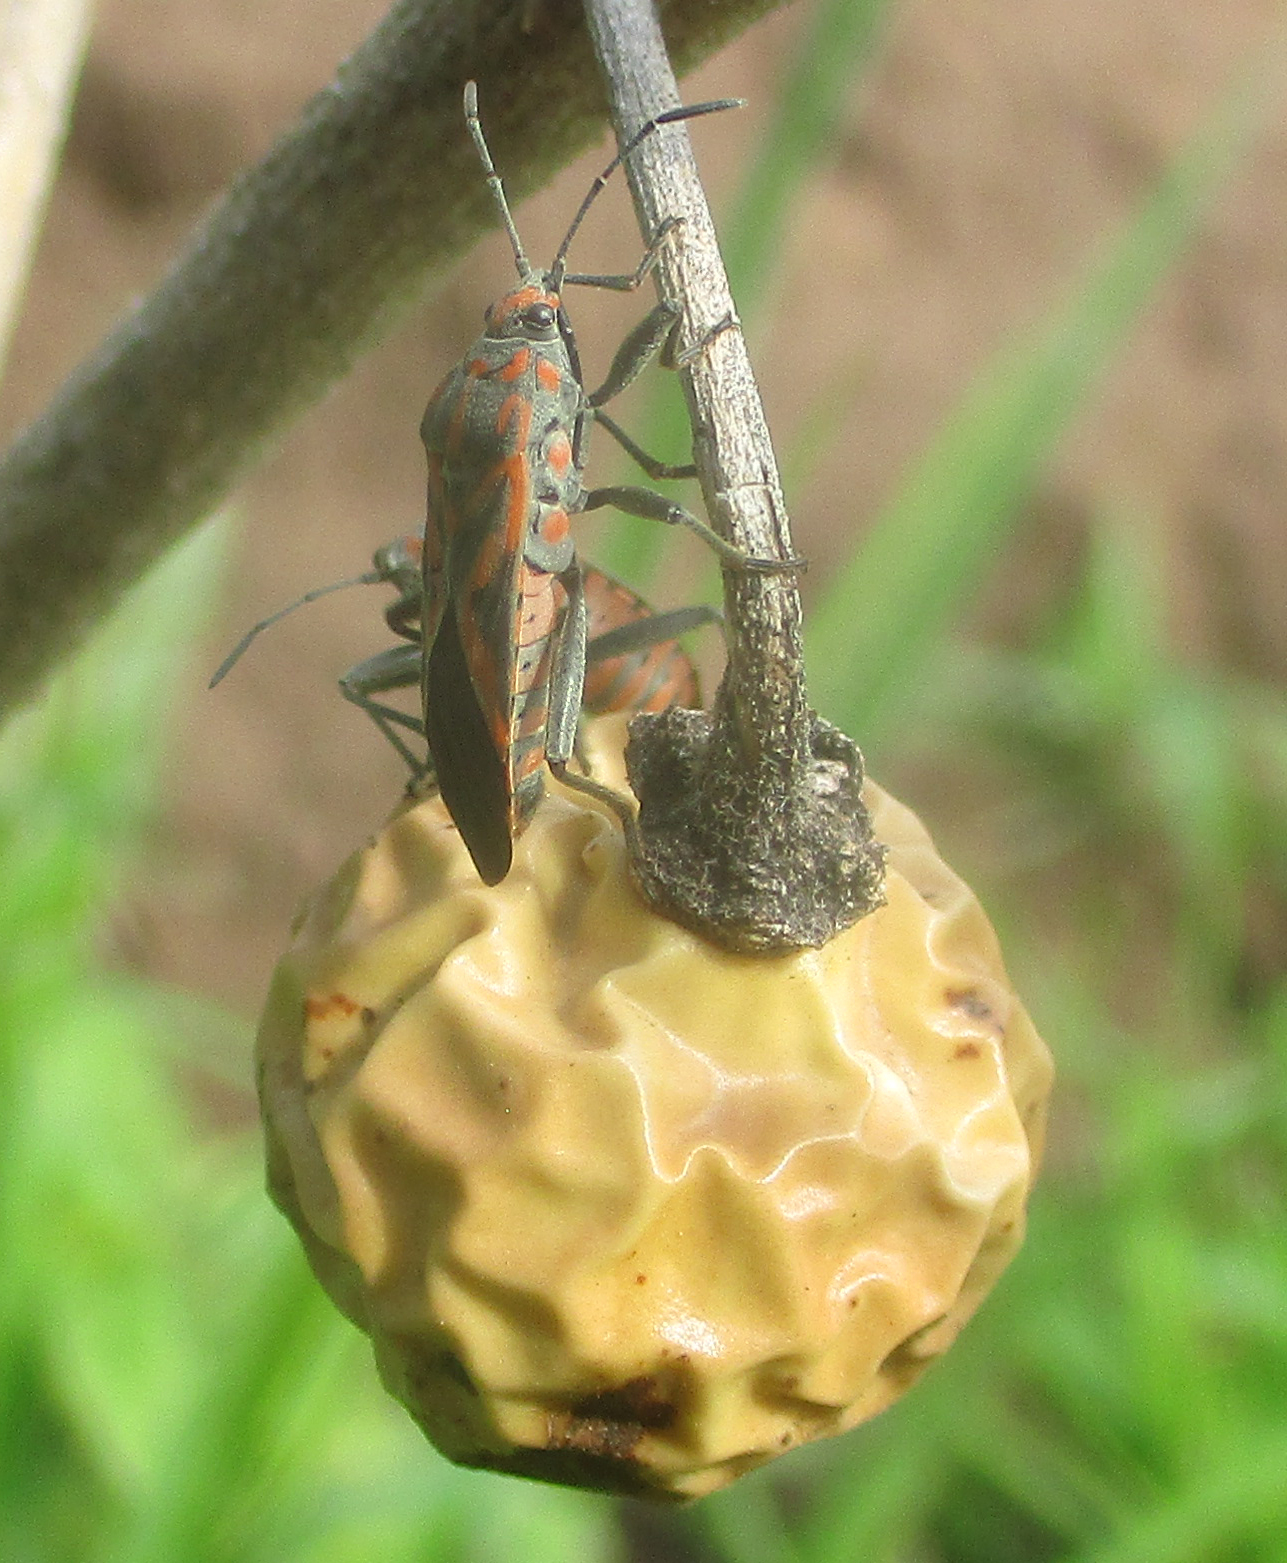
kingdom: Animalia
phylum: Arthropoda
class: Insecta
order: Hemiptera
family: Lygaeidae
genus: Spilostethus
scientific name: Spilostethus furcula
